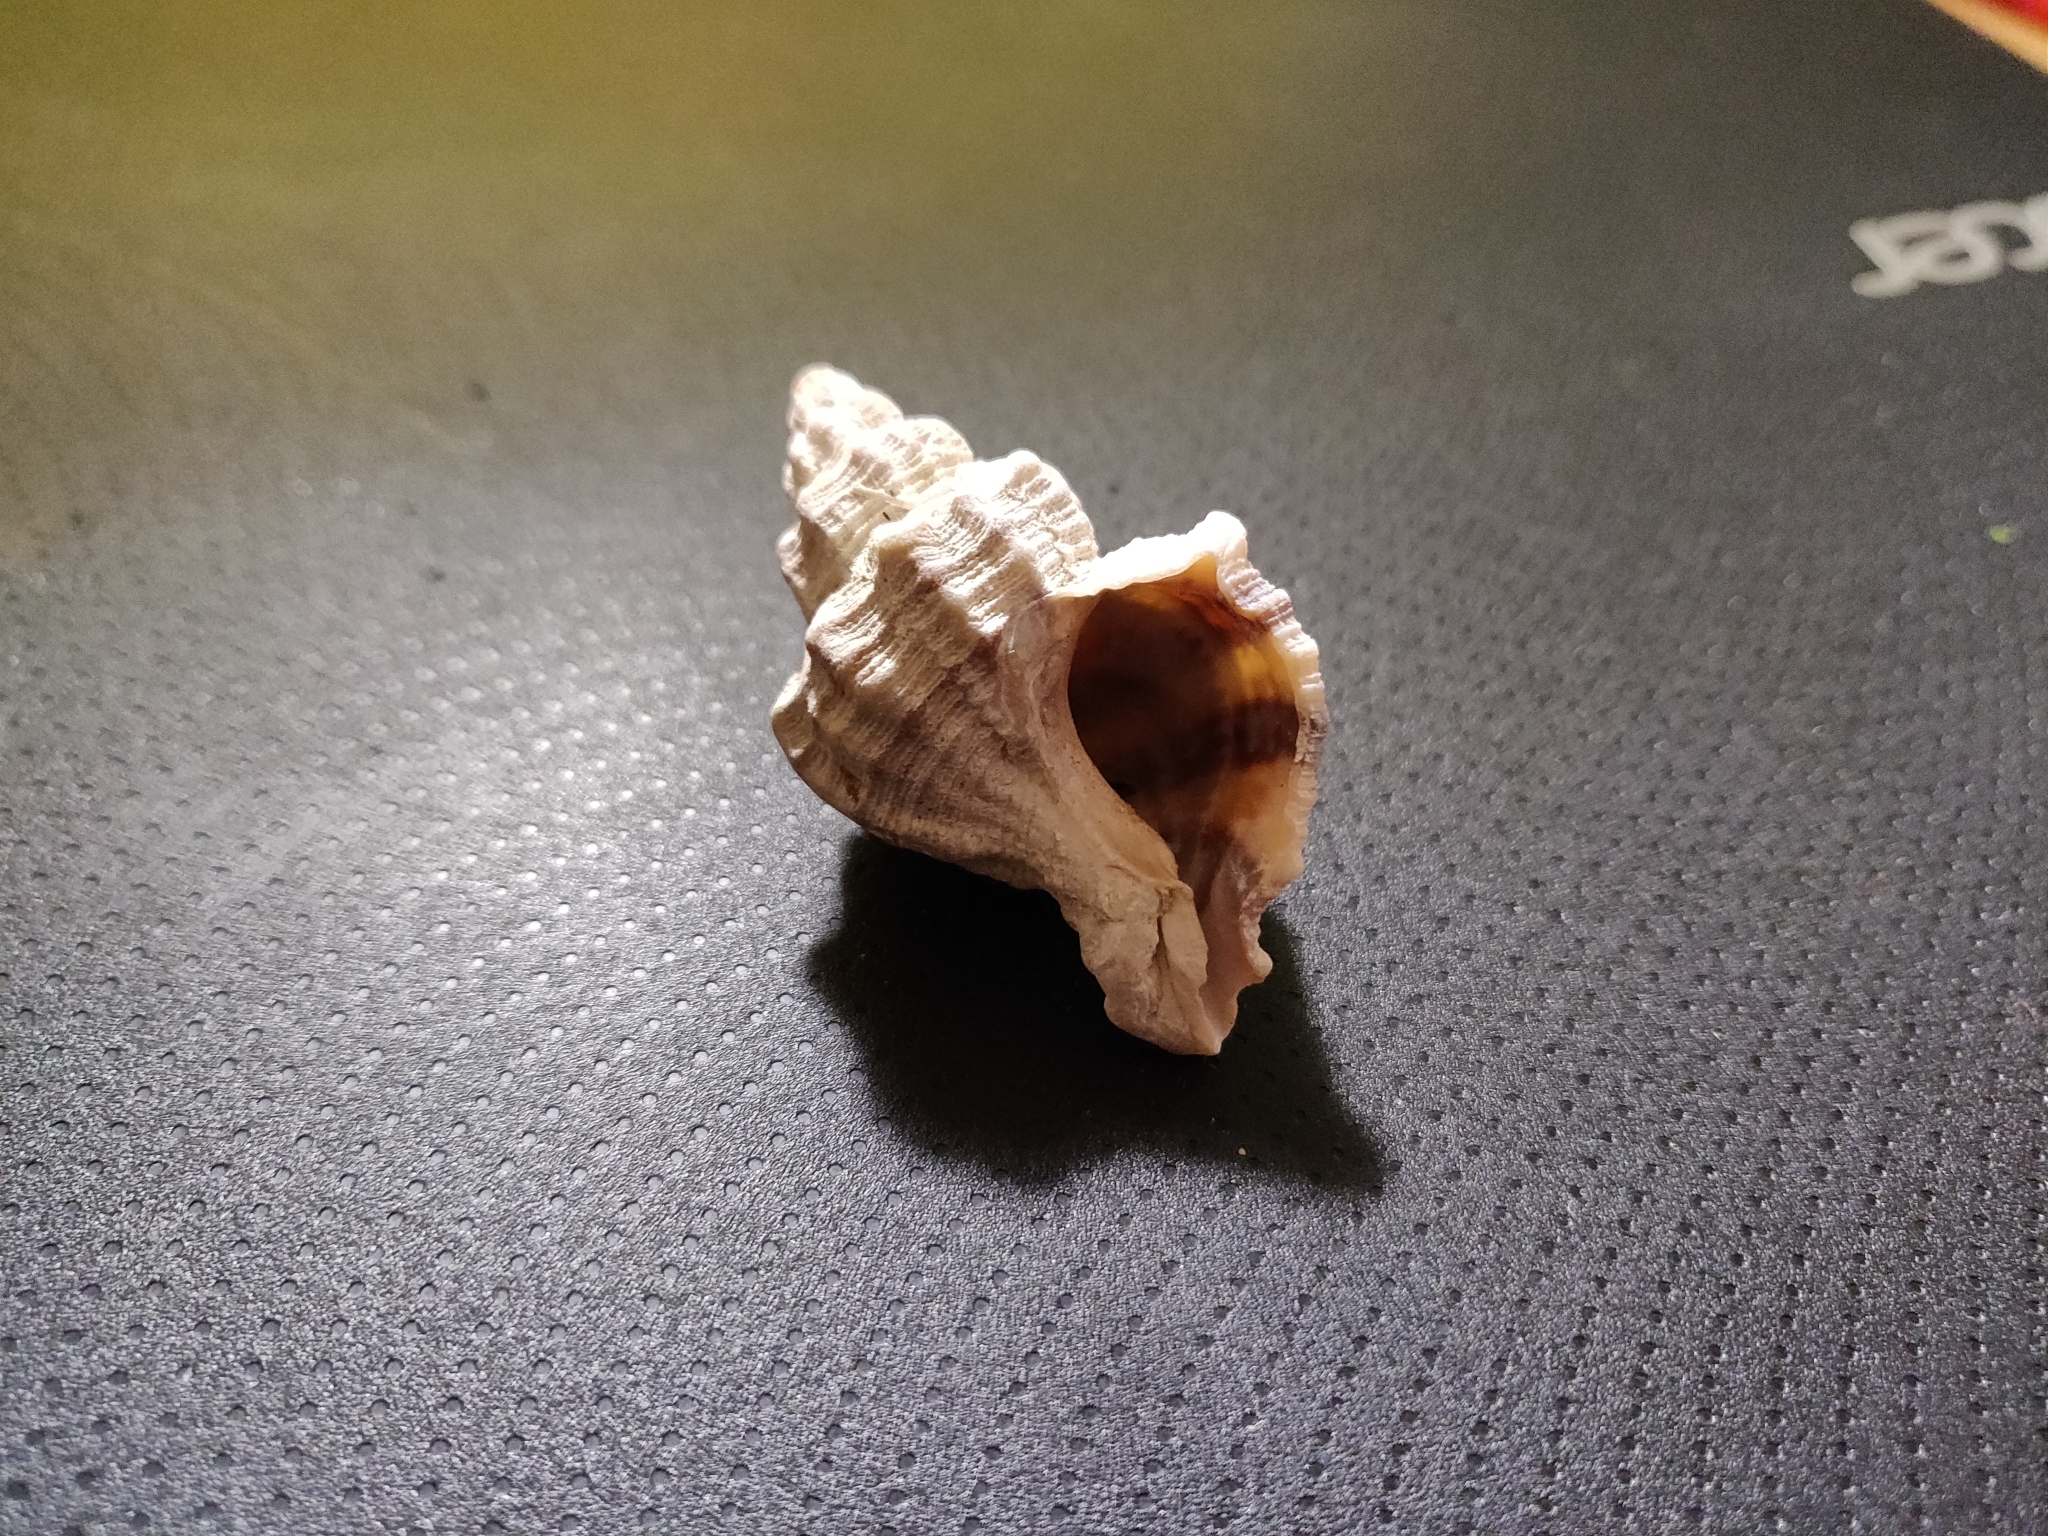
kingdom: Animalia
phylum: Mollusca
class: Gastropoda
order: Neogastropoda
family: Muricidae
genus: Hexaplex
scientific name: Hexaplex trunculus
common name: Banded dye-murex
